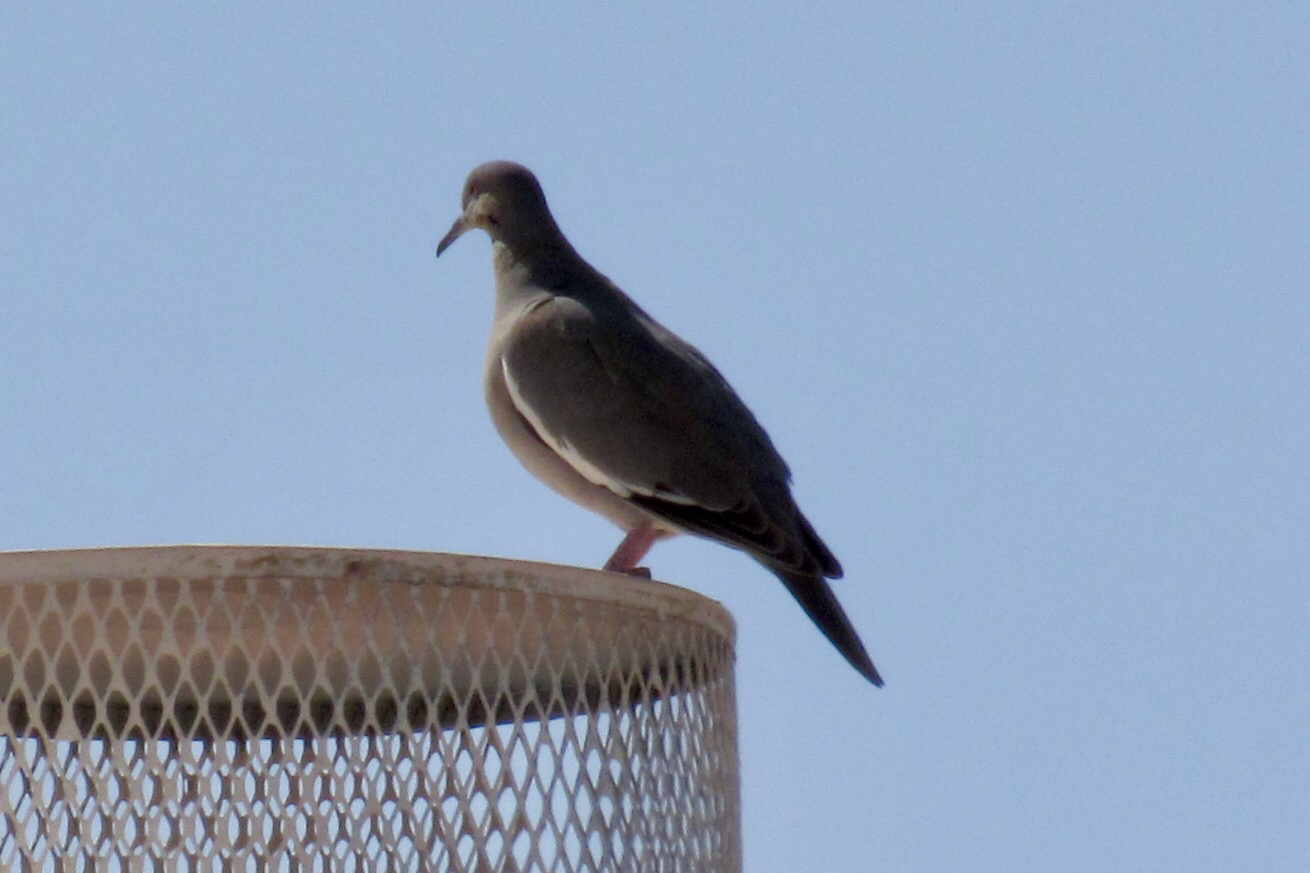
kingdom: Animalia
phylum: Chordata
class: Aves
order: Columbiformes
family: Columbidae
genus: Zenaida
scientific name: Zenaida asiatica
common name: White-winged dove
